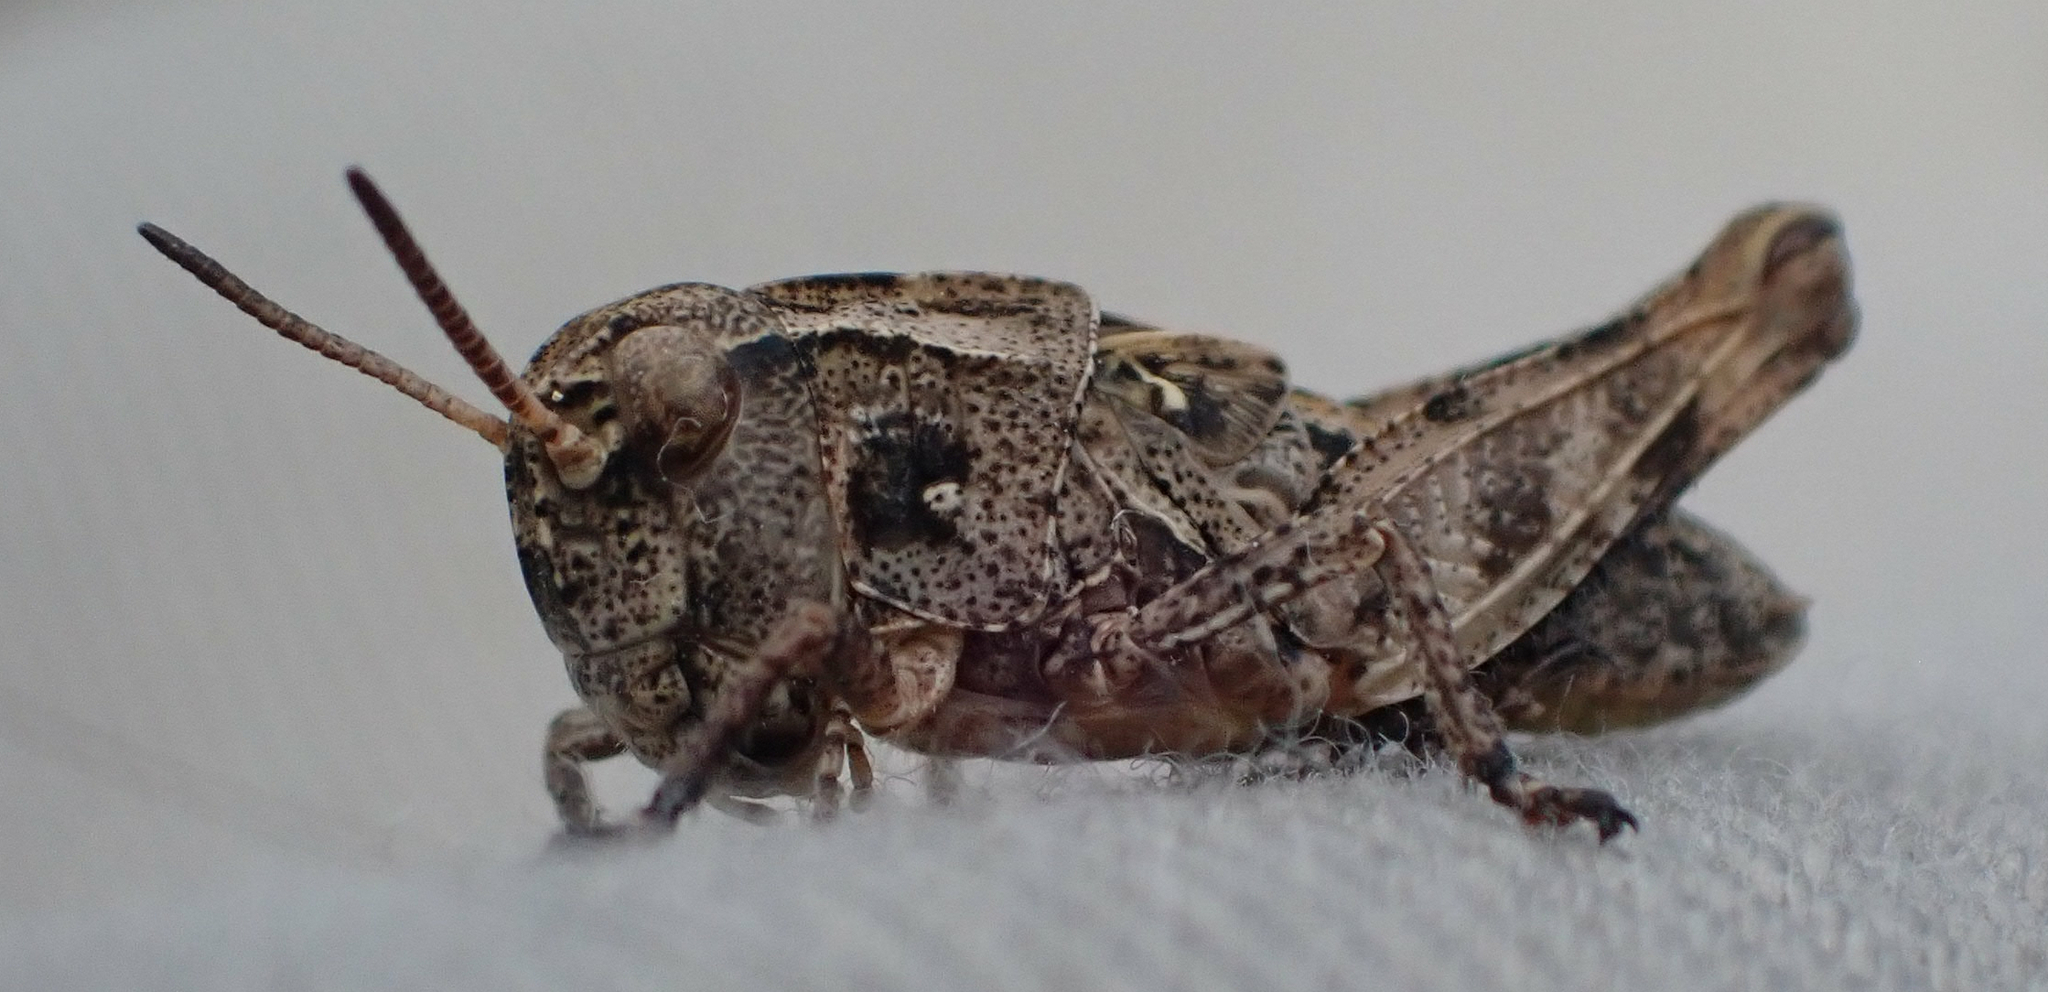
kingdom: Animalia
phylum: Arthropoda
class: Insecta
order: Orthoptera
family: Acrididae
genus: Camnula
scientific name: Camnula pellucida
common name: Clear-winged grasshopper
